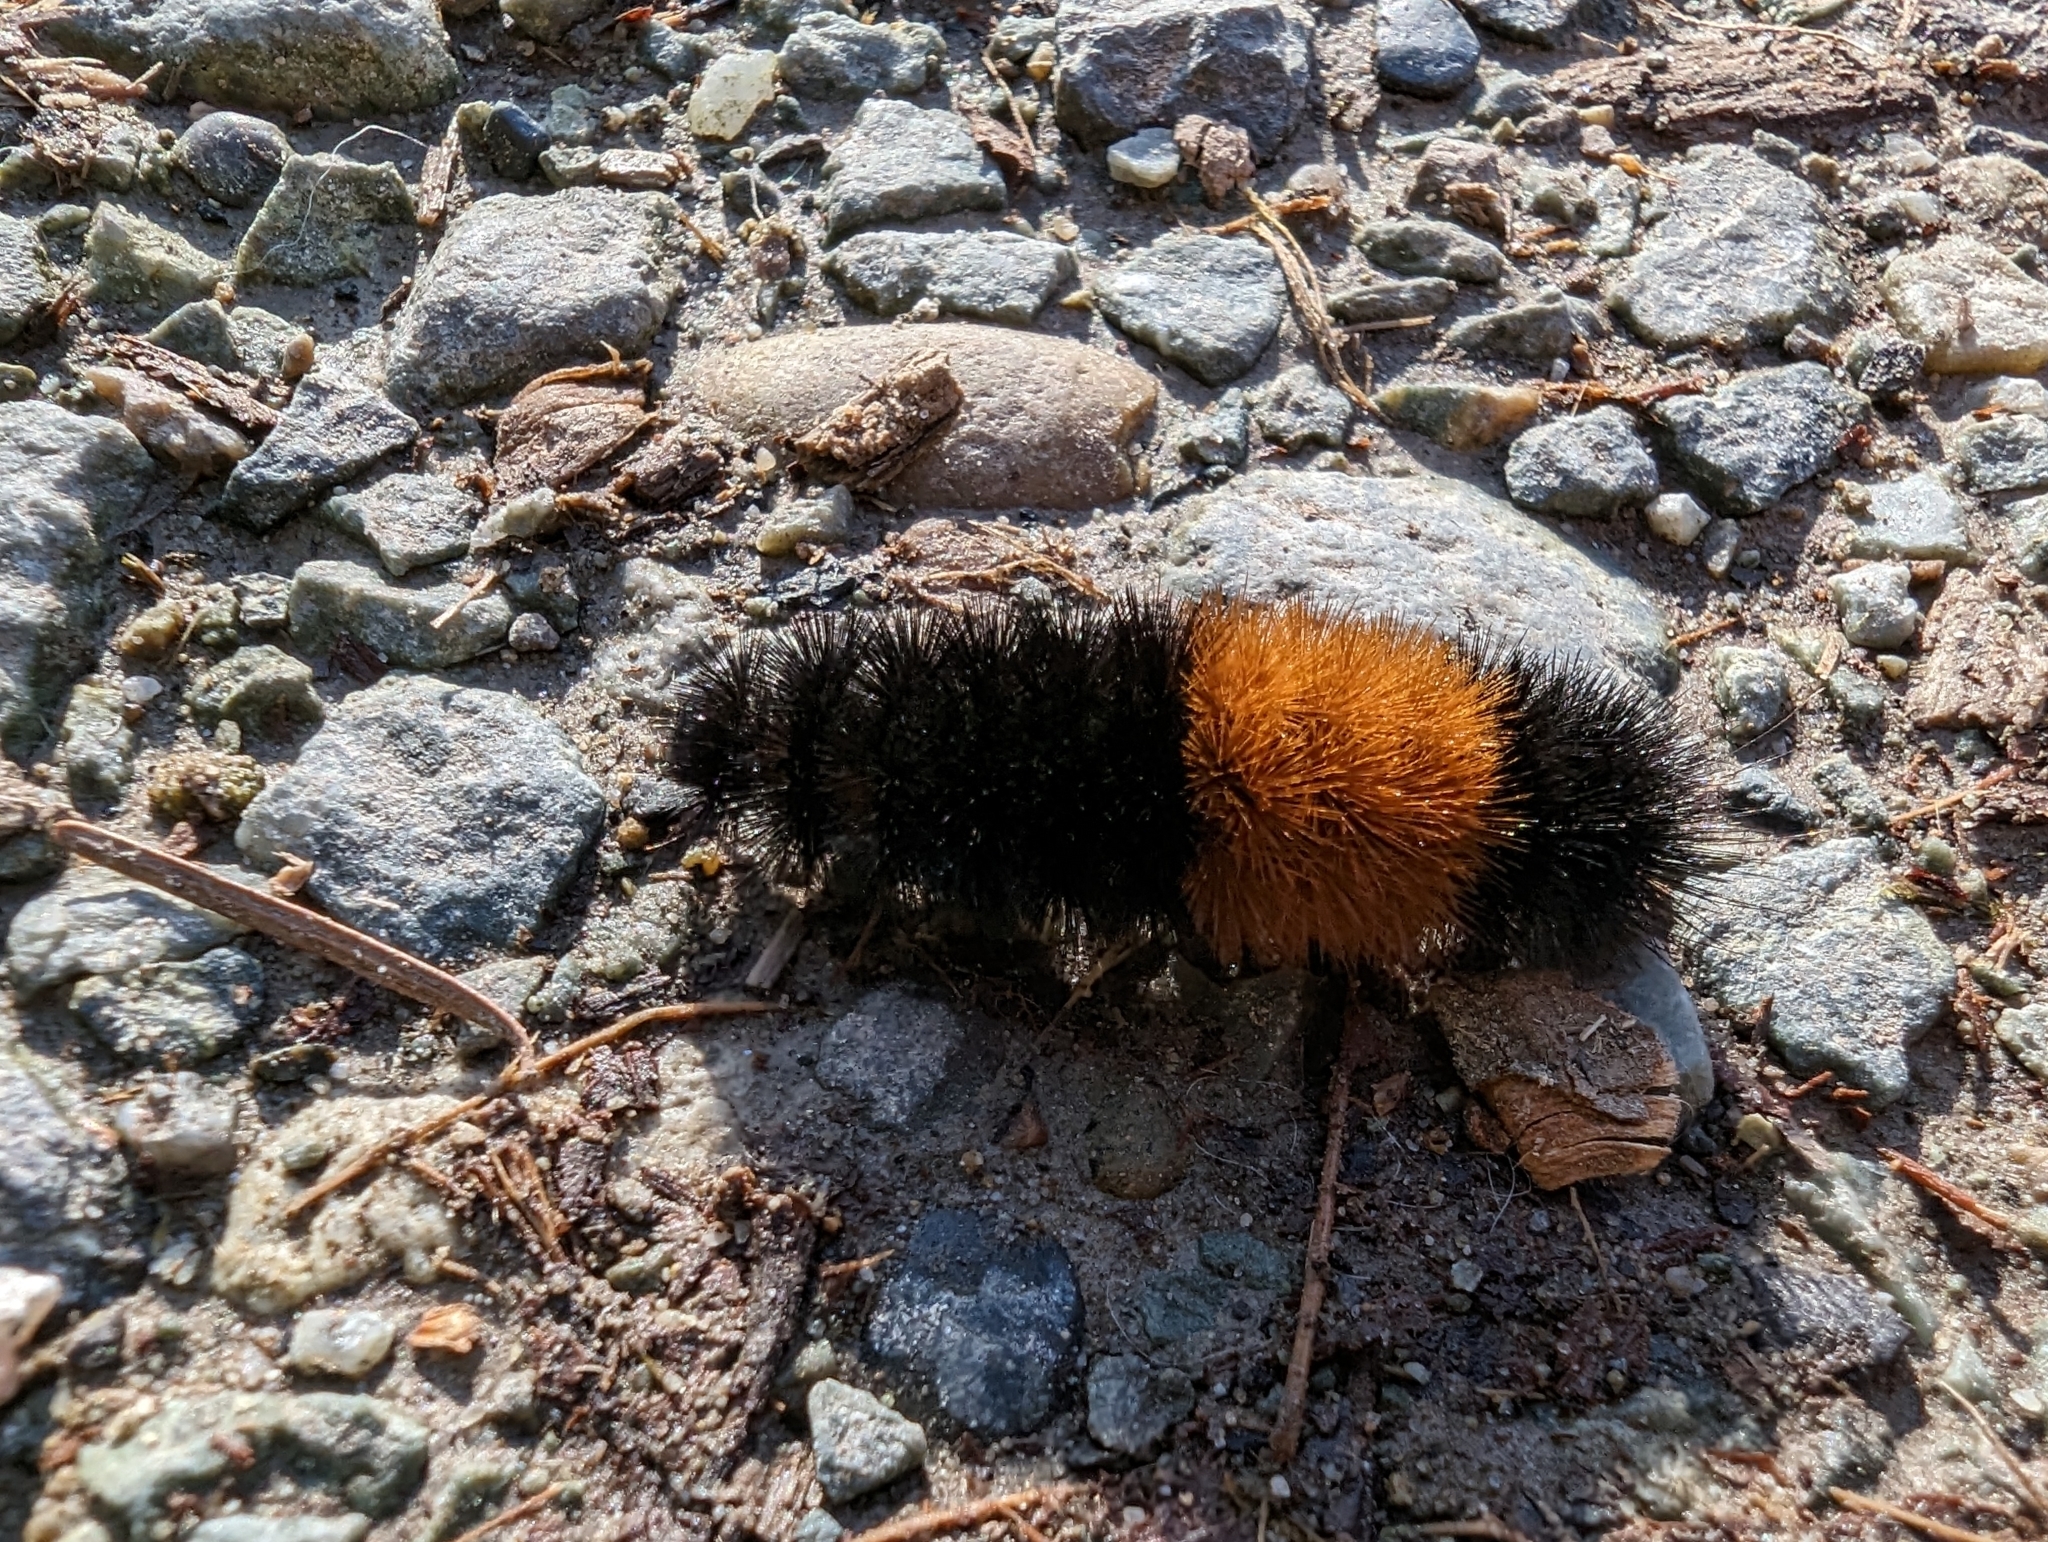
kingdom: Animalia
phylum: Arthropoda
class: Insecta
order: Lepidoptera
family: Erebidae
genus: Pyrrharctia
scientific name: Pyrrharctia isabella
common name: Isabella tiger moth
